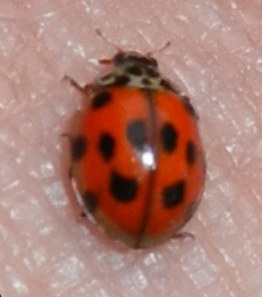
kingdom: Animalia
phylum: Arthropoda
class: Insecta
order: Coleoptera
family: Coccinellidae
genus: Adalia
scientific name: Adalia decempunctata
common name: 10-spot ladybird
